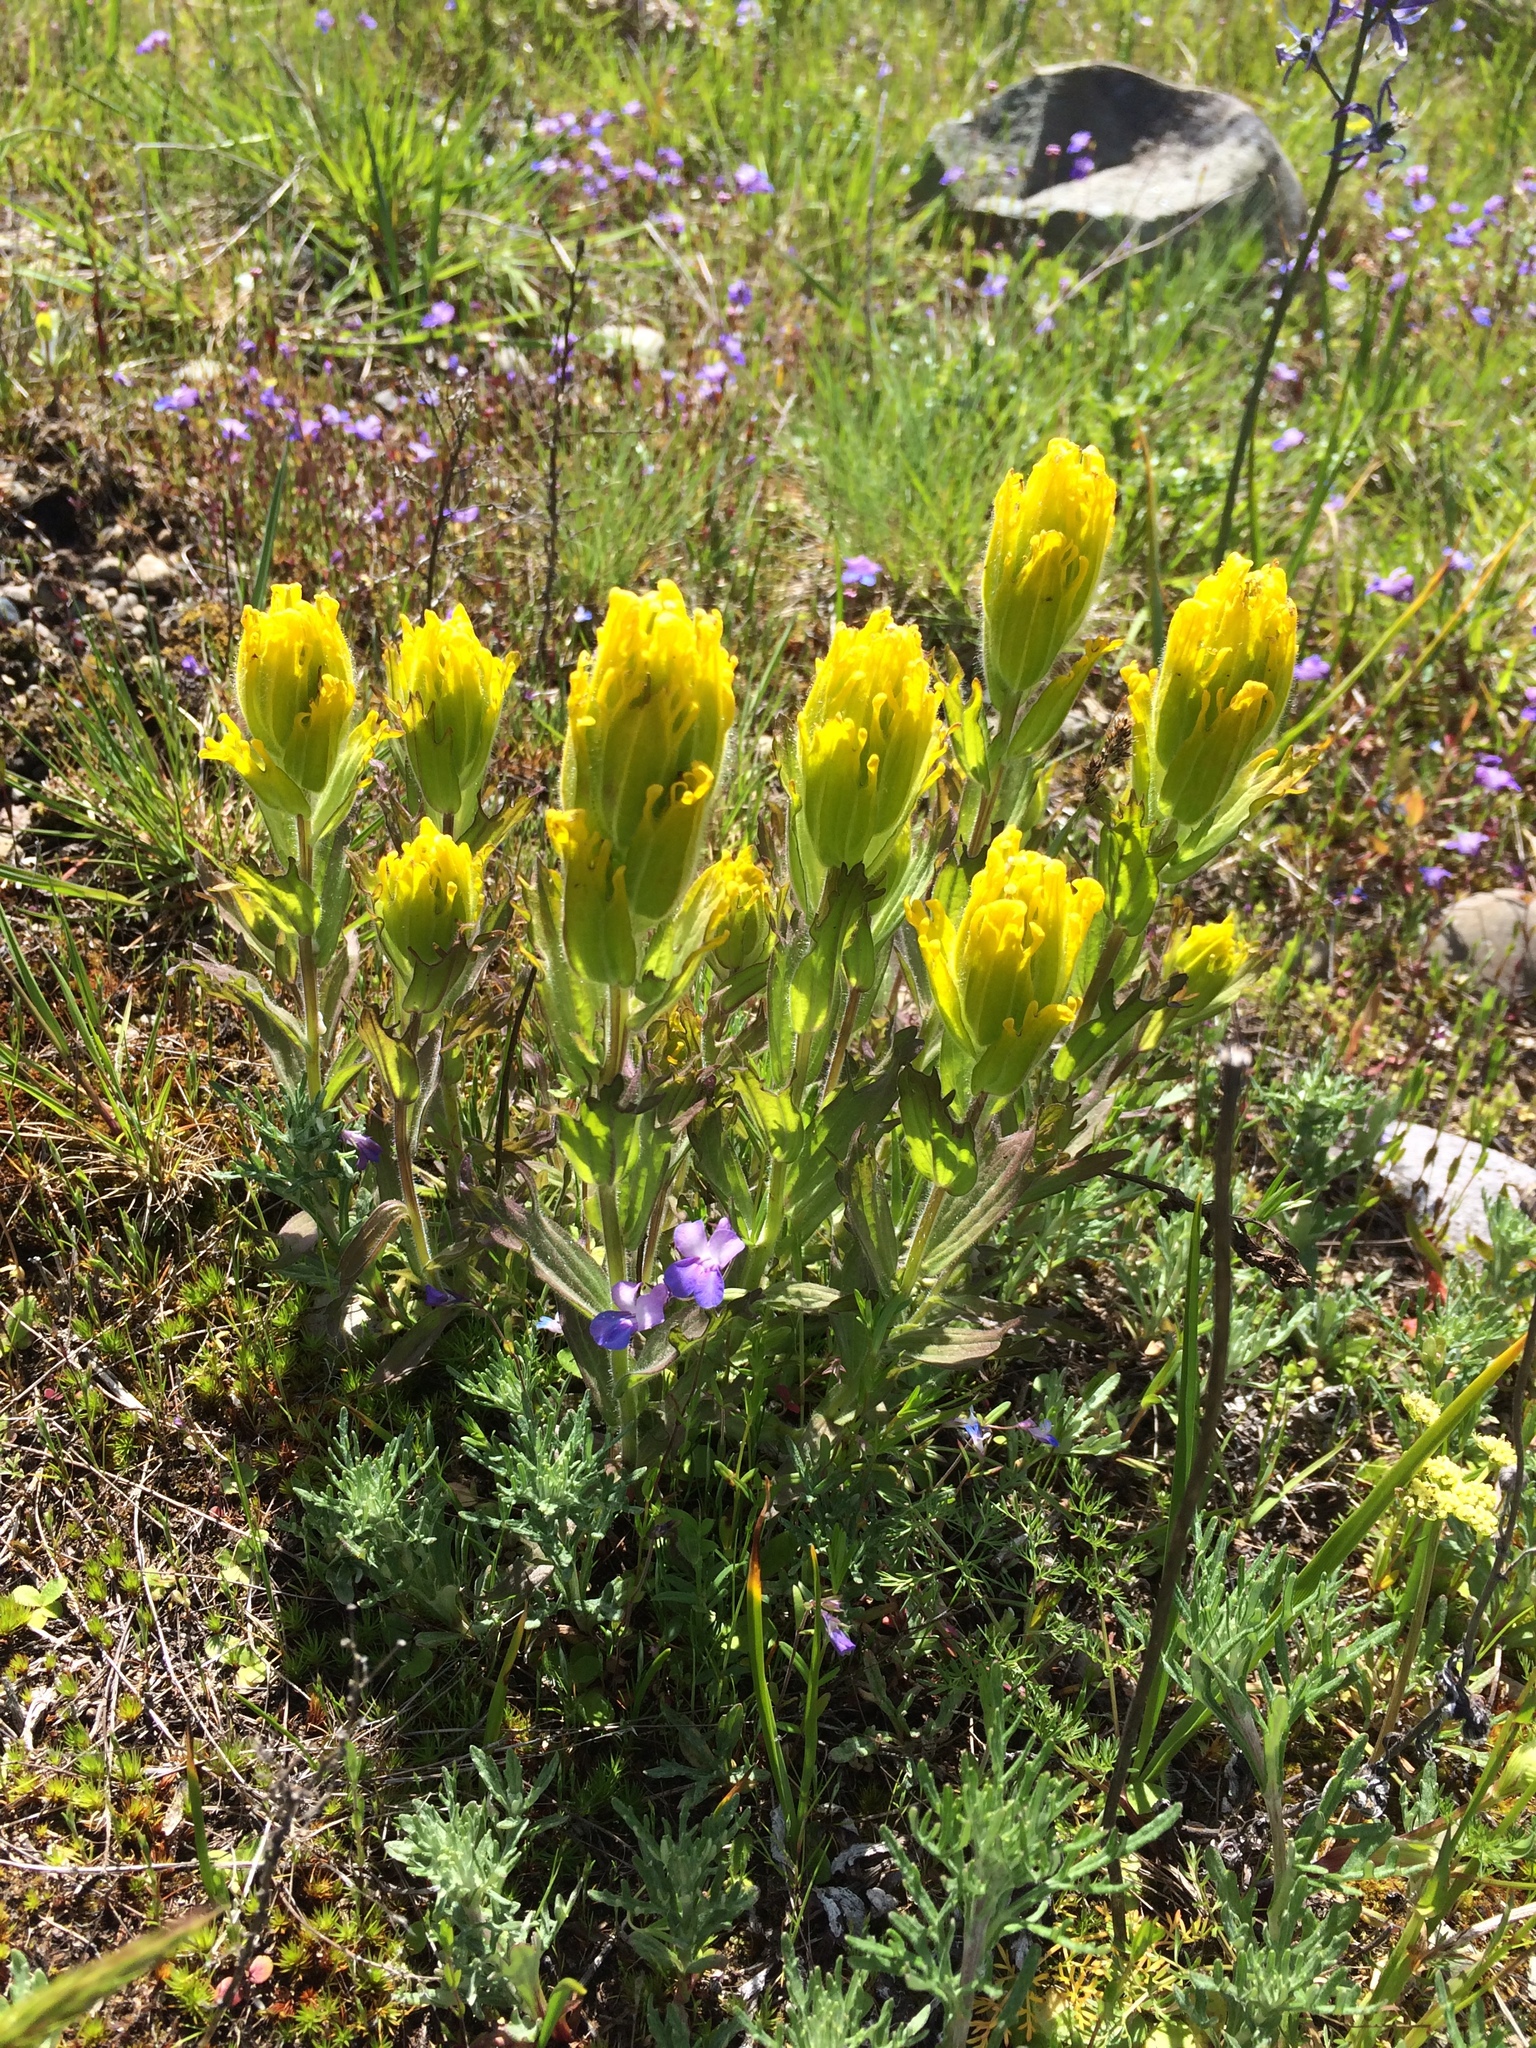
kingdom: Plantae
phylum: Tracheophyta
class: Magnoliopsida
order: Lamiales
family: Orobanchaceae
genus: Castilleja
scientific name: Castilleja levisecta
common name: Golden paintbrush
